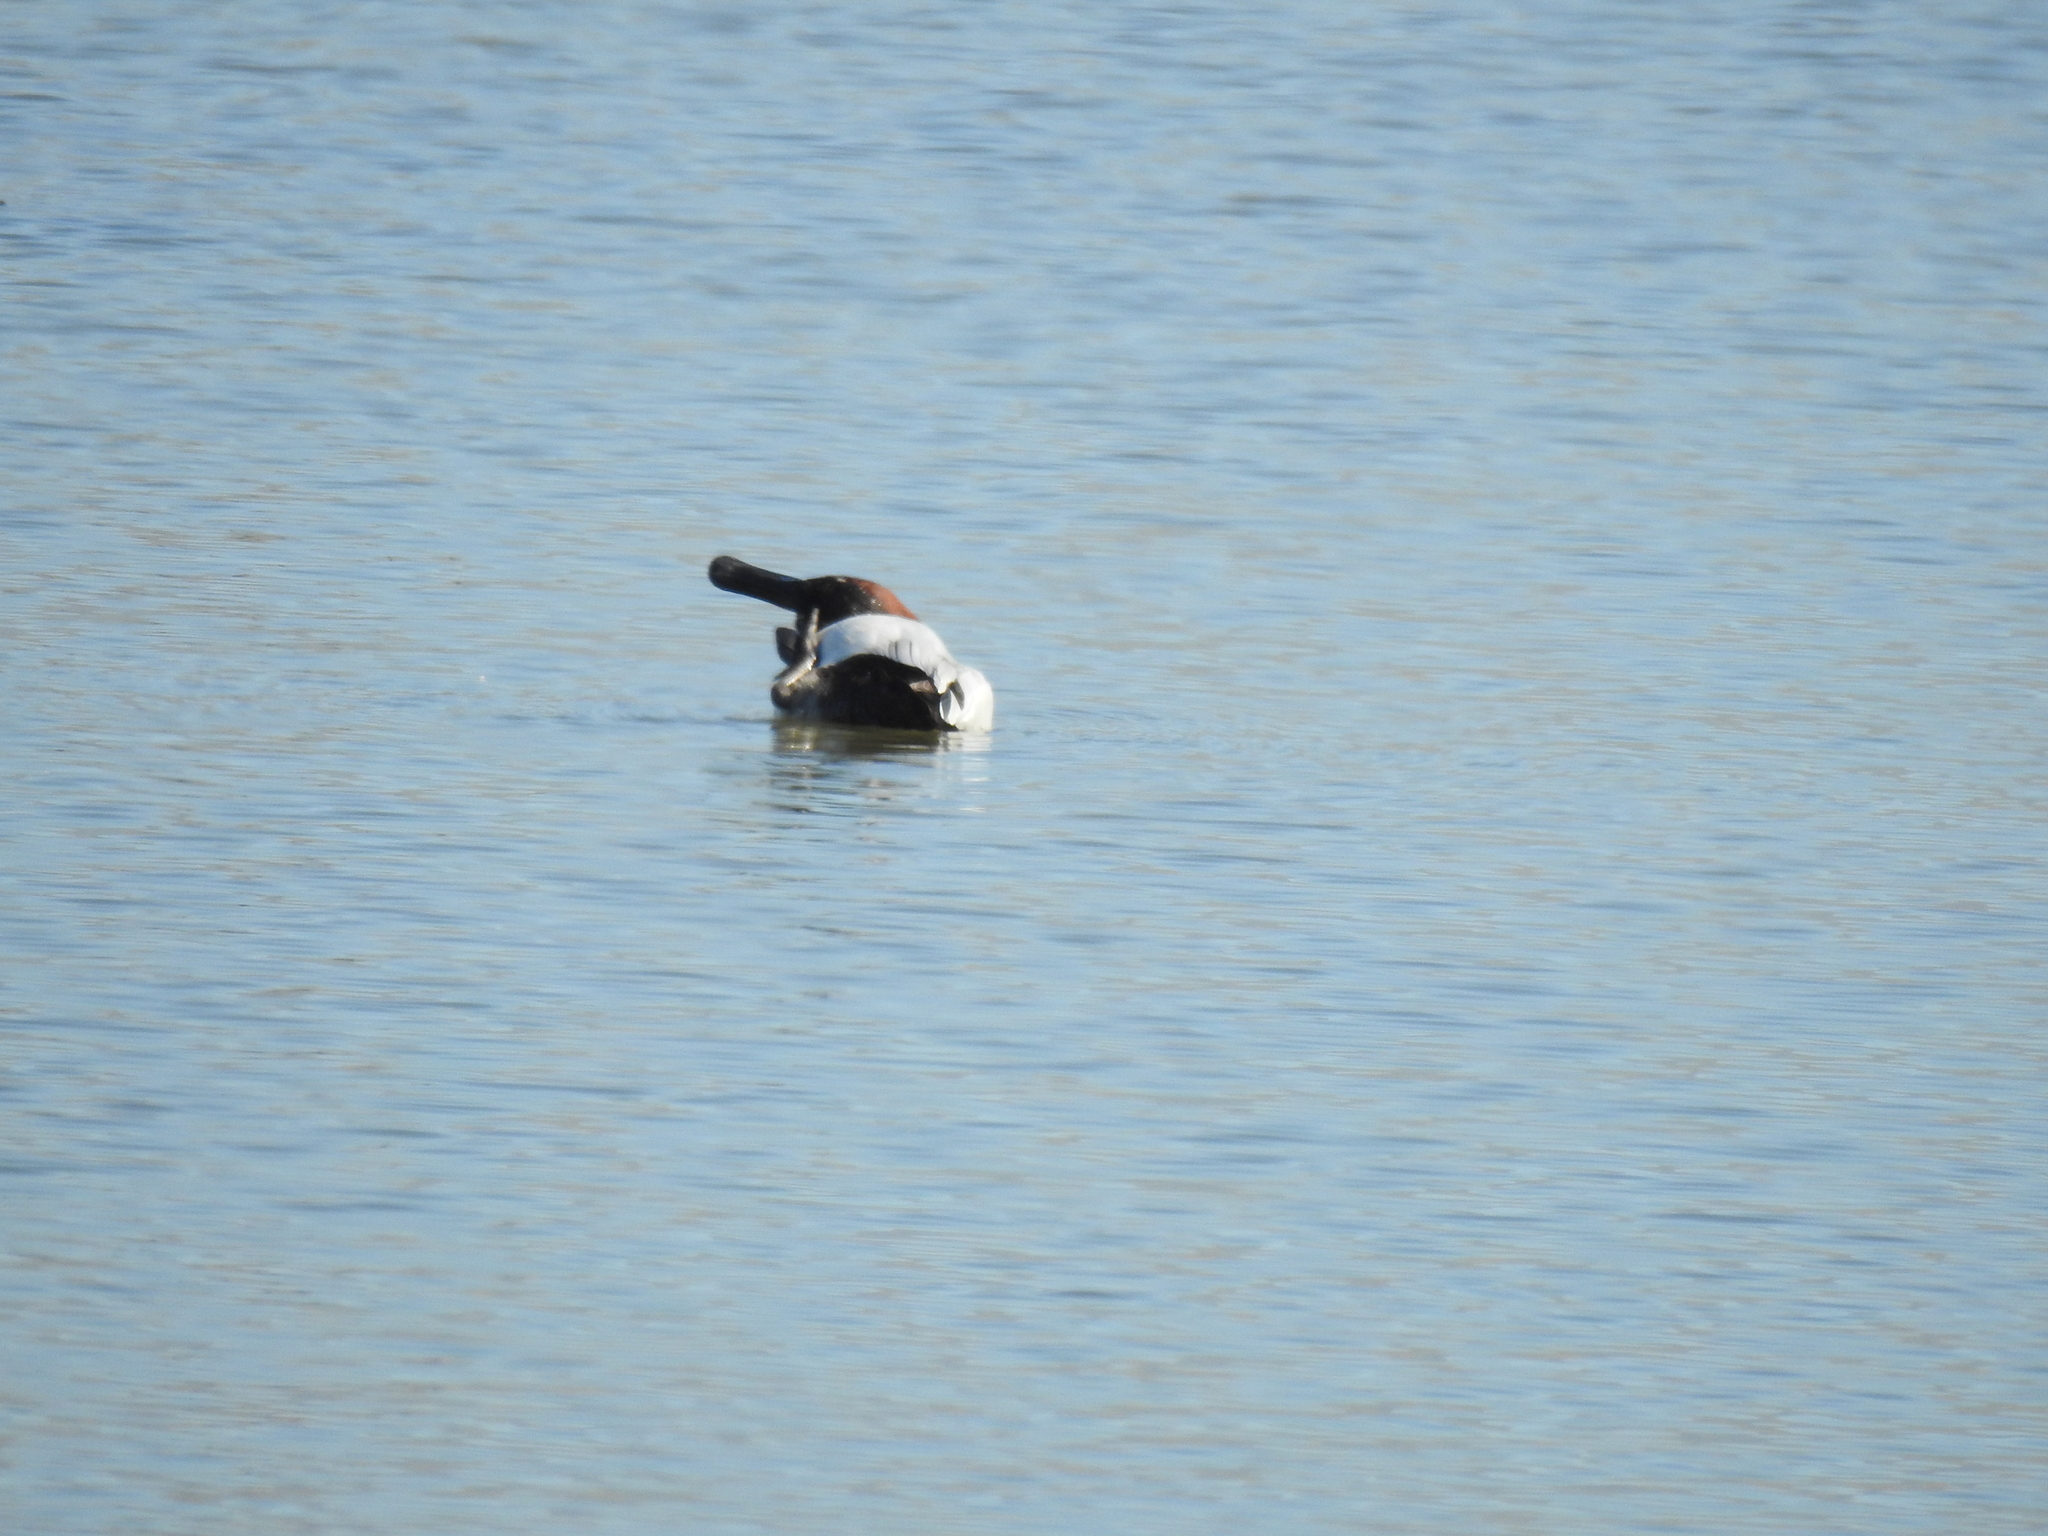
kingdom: Animalia
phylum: Chordata
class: Aves
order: Anseriformes
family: Anatidae
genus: Aythya
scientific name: Aythya valisineria
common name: Canvasback
